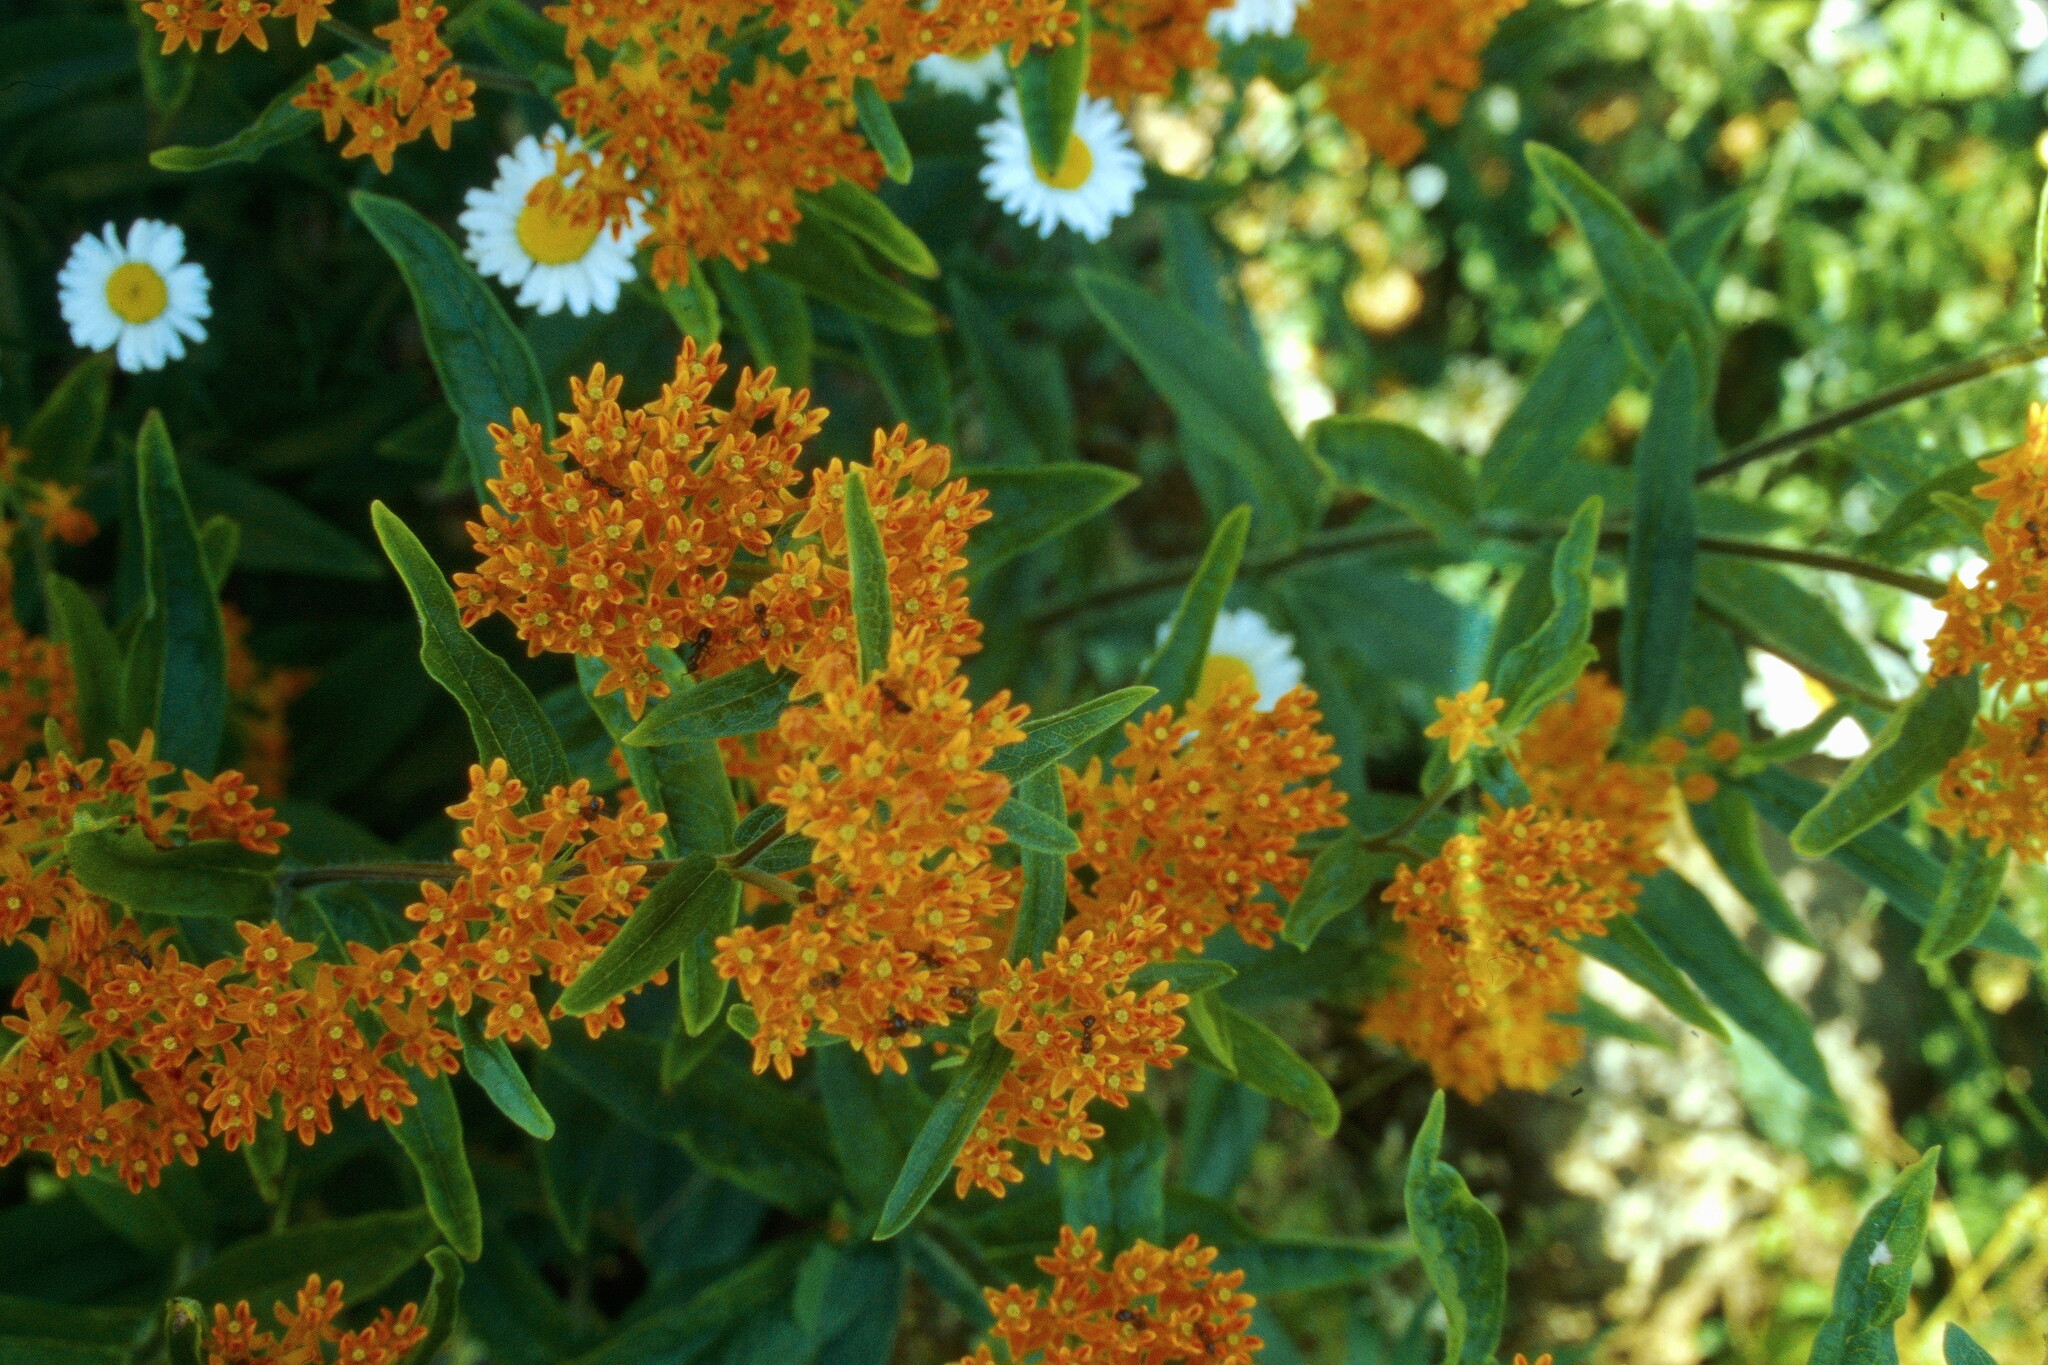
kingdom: Plantae
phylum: Tracheophyta
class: Magnoliopsida
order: Gentianales
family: Apocynaceae
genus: Asclepias
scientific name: Asclepias tuberosa
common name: Butterfly milkweed
